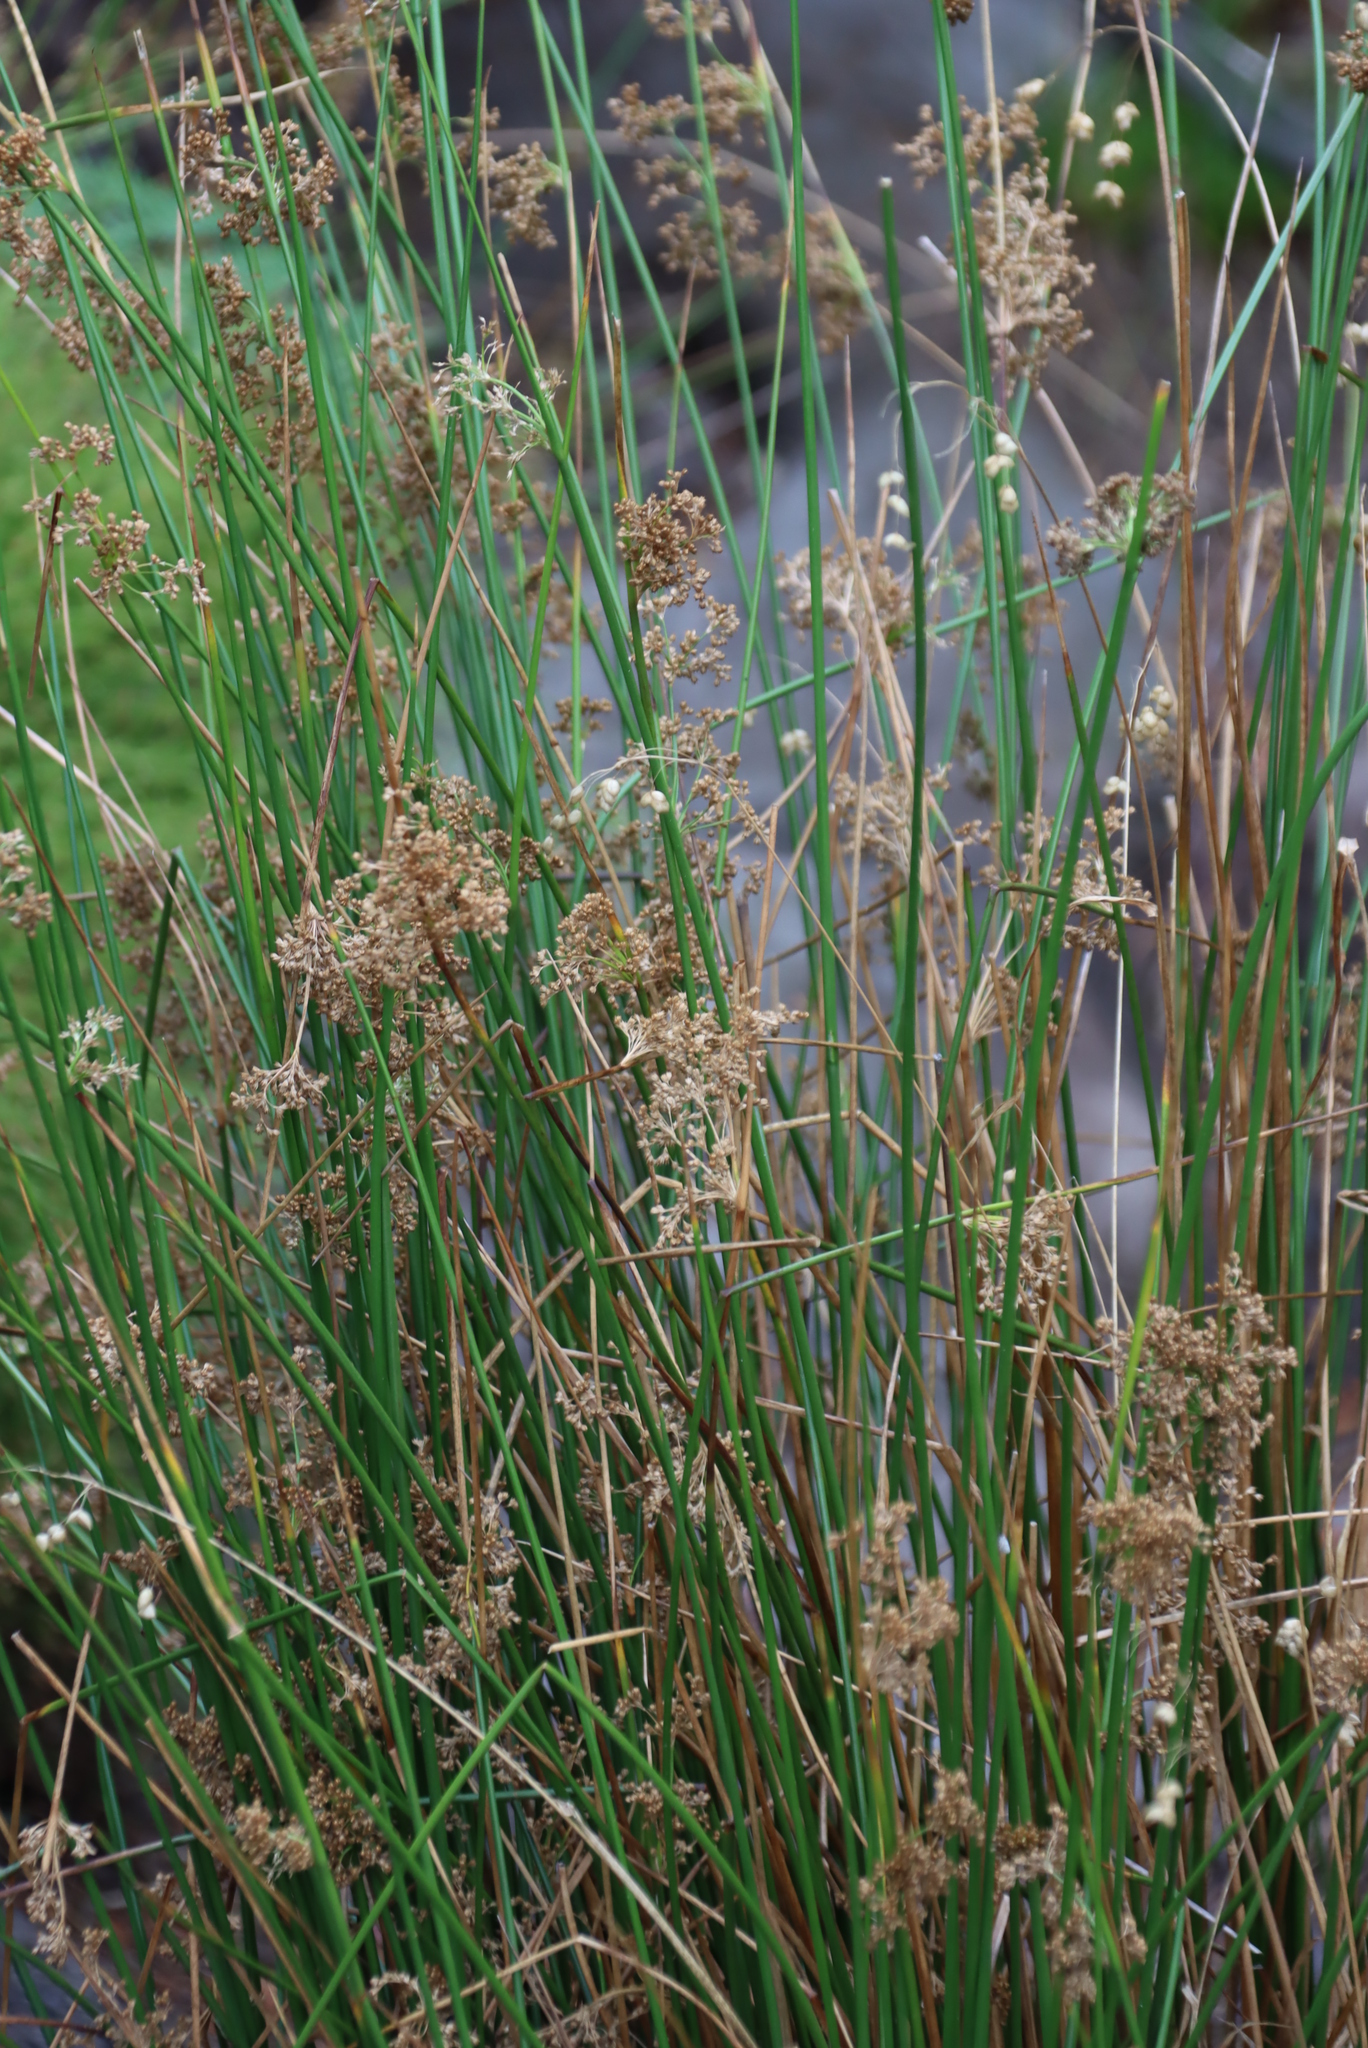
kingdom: Plantae
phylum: Tracheophyta
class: Liliopsida
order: Poales
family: Juncaceae
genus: Juncus
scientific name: Juncus effusus
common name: Soft rush
